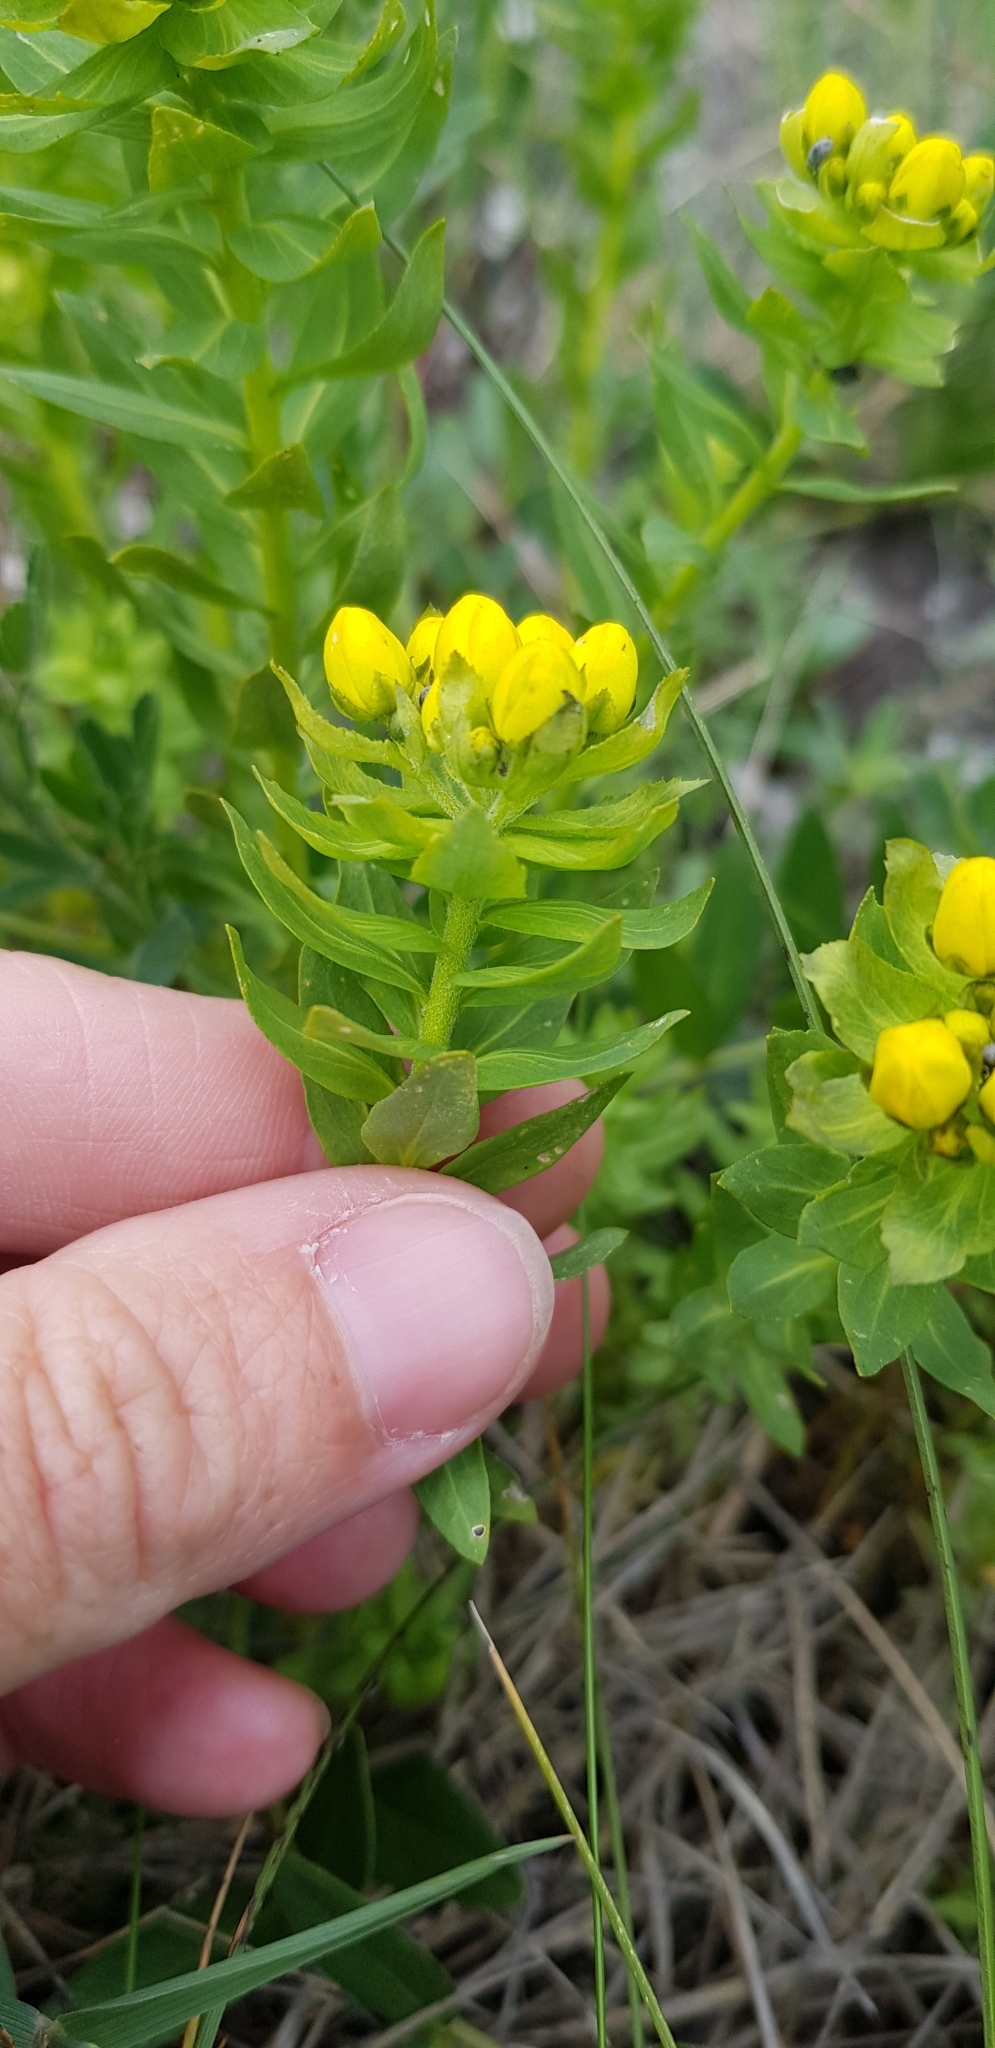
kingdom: Plantae
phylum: Tracheophyta
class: Magnoliopsida
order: Sapindales
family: Rutaceae
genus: Haplophyllum
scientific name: Haplophyllum thesioides
